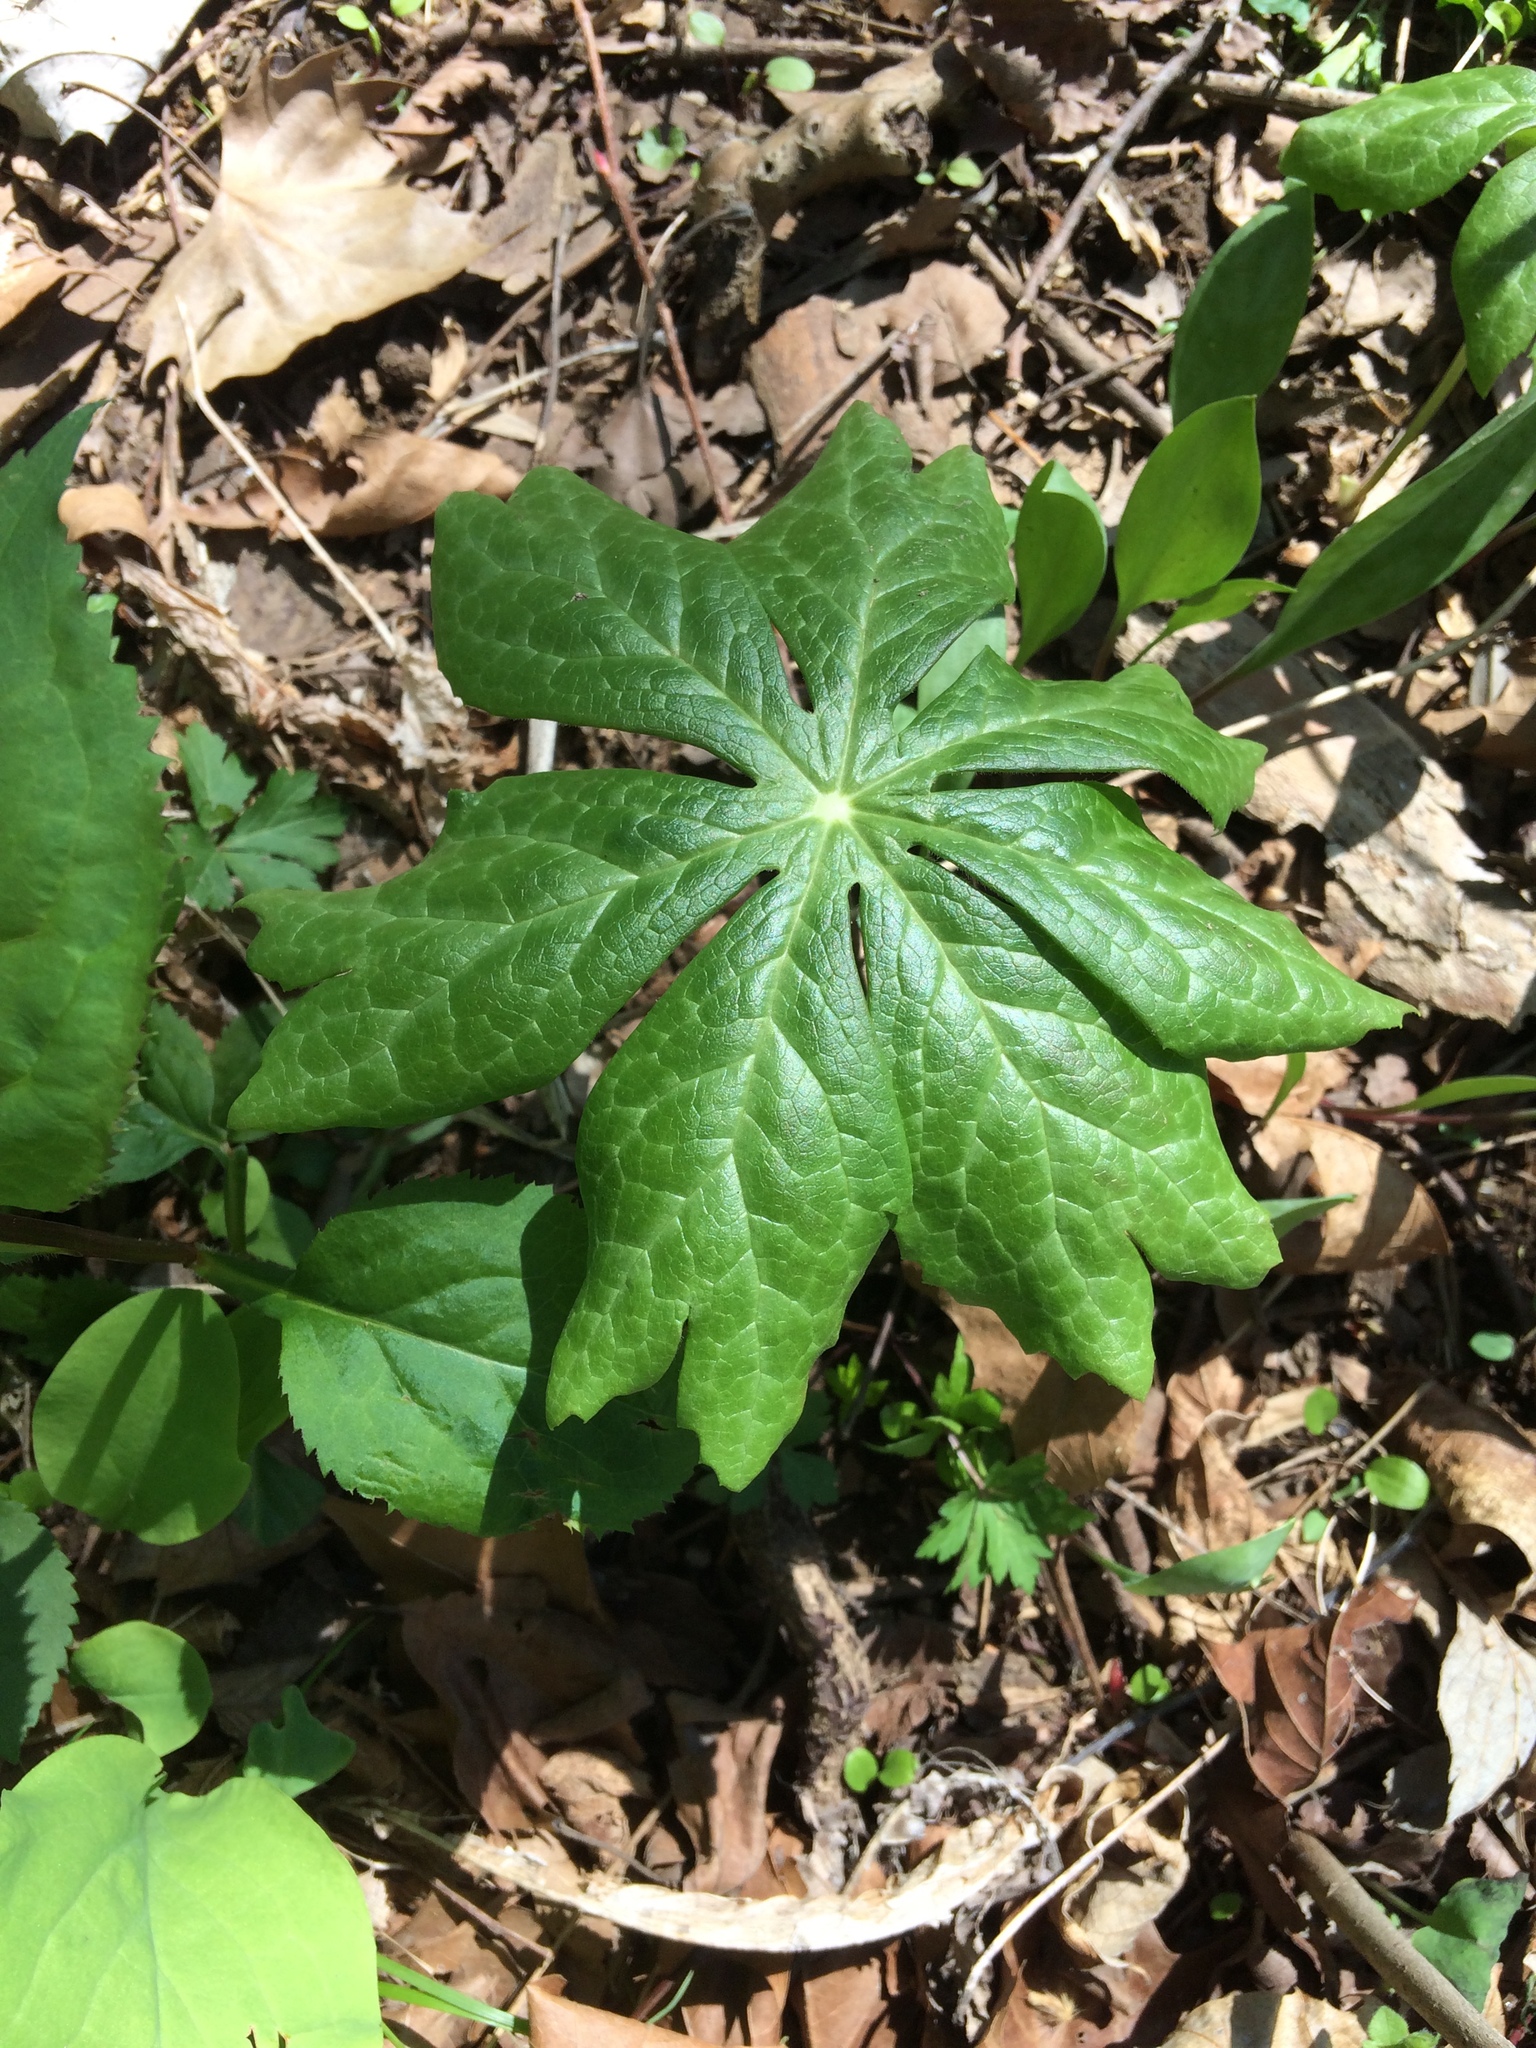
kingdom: Plantae
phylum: Tracheophyta
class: Magnoliopsida
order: Ranunculales
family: Berberidaceae
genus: Podophyllum
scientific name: Podophyllum peltatum
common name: Wild mandrake
